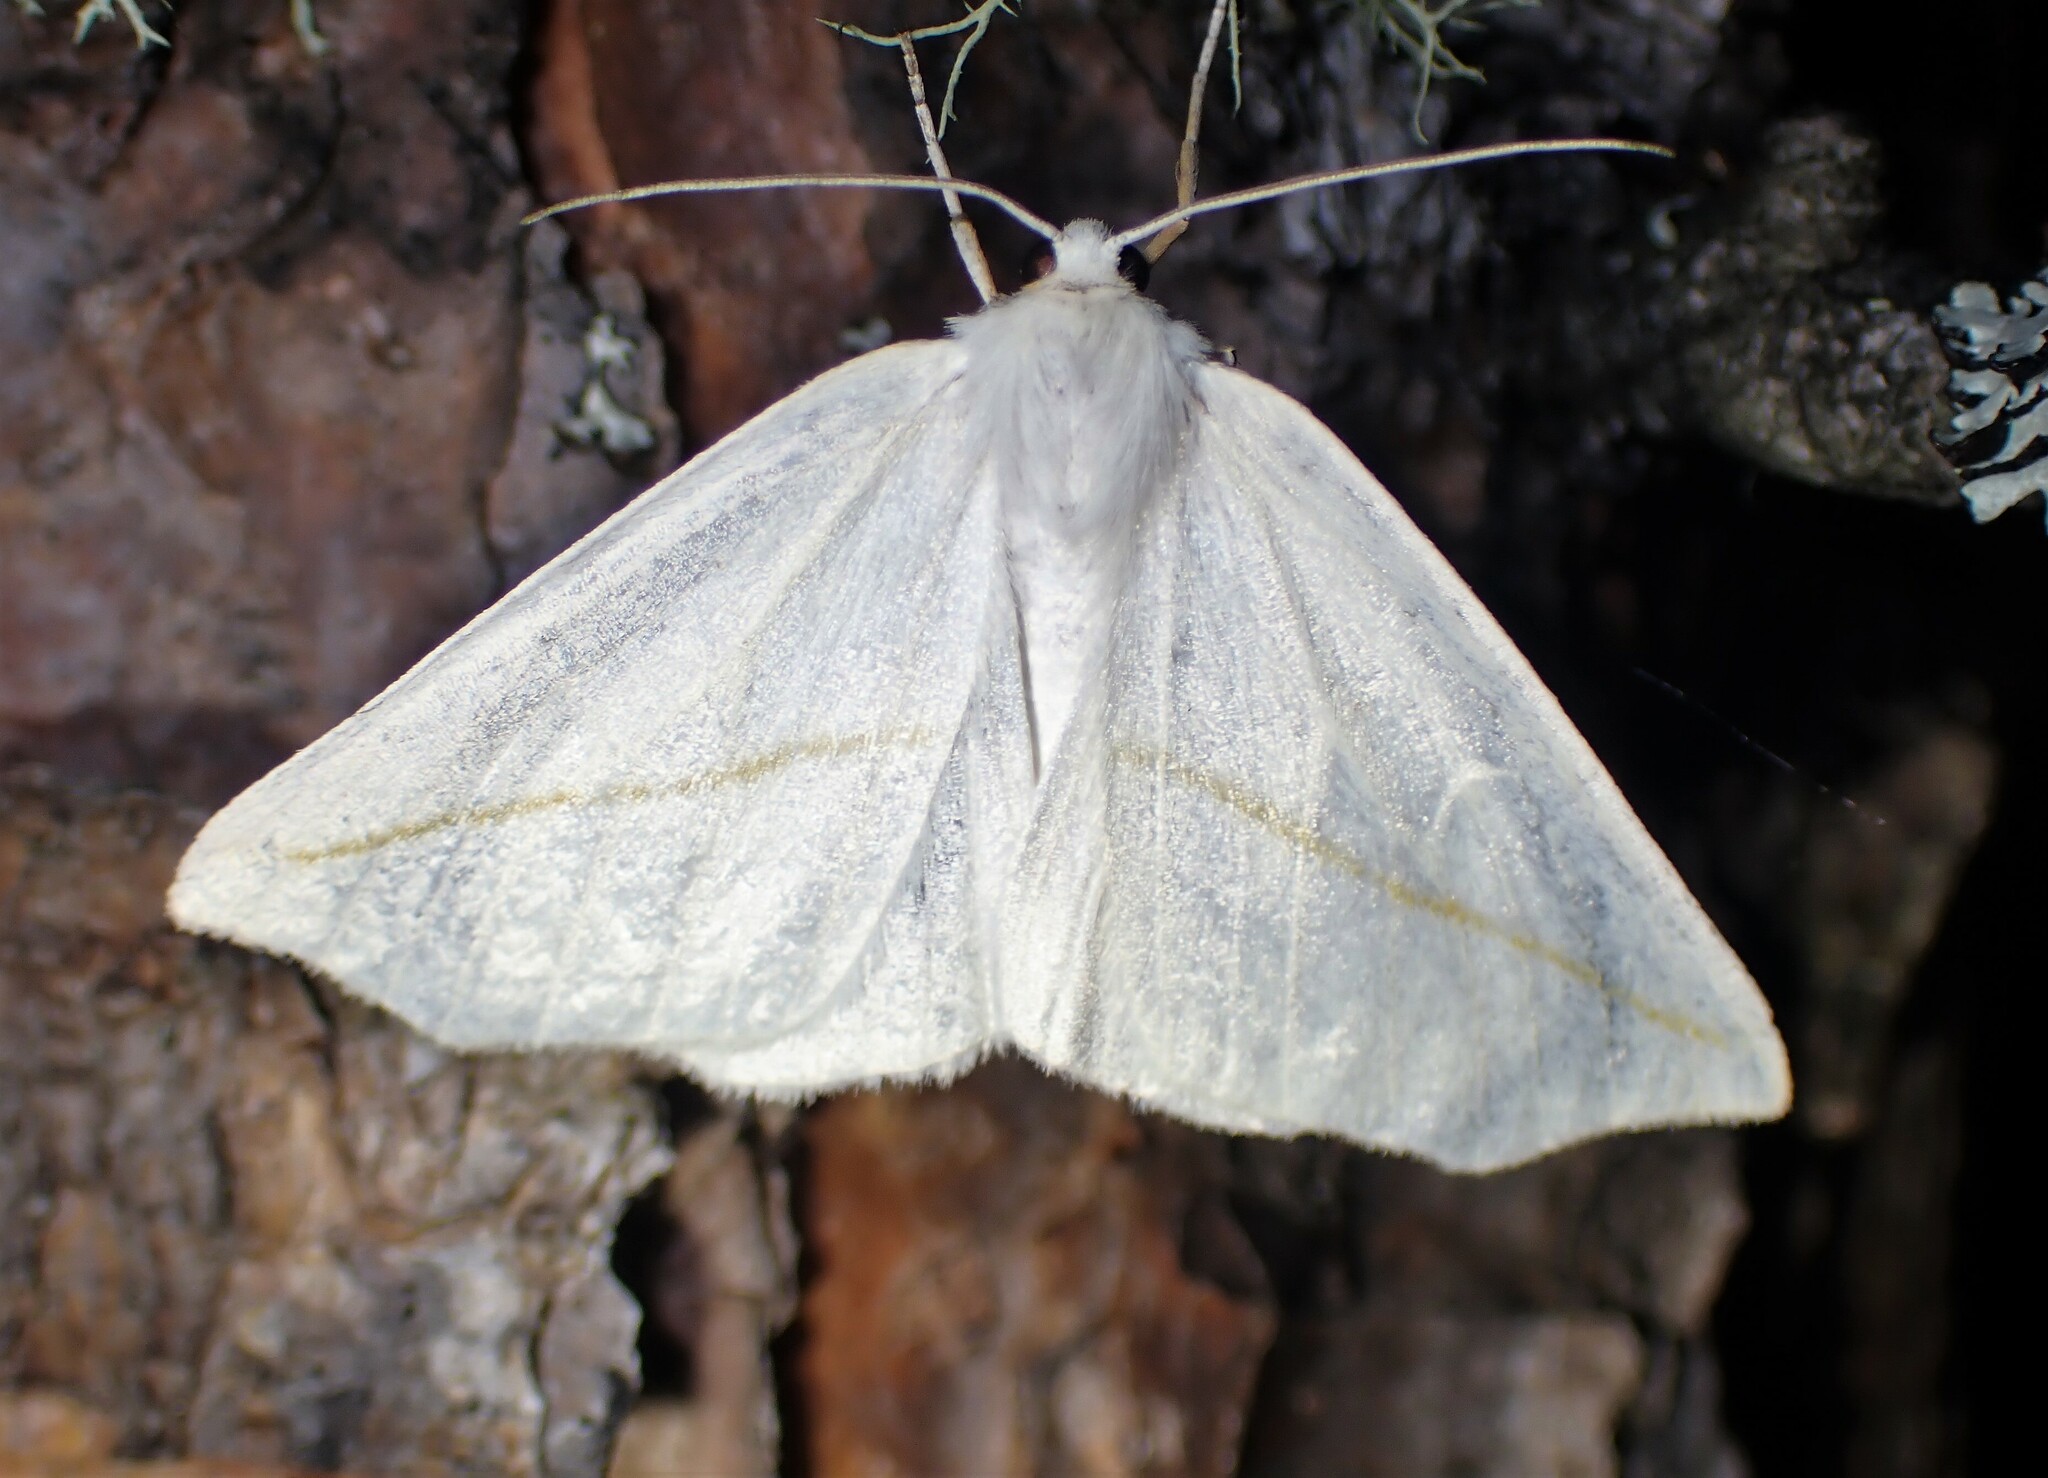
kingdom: Animalia
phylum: Arthropoda
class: Insecta
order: Lepidoptera
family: Geometridae
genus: Tetracis
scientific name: Tetracis cachexiata
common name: White slant-line
